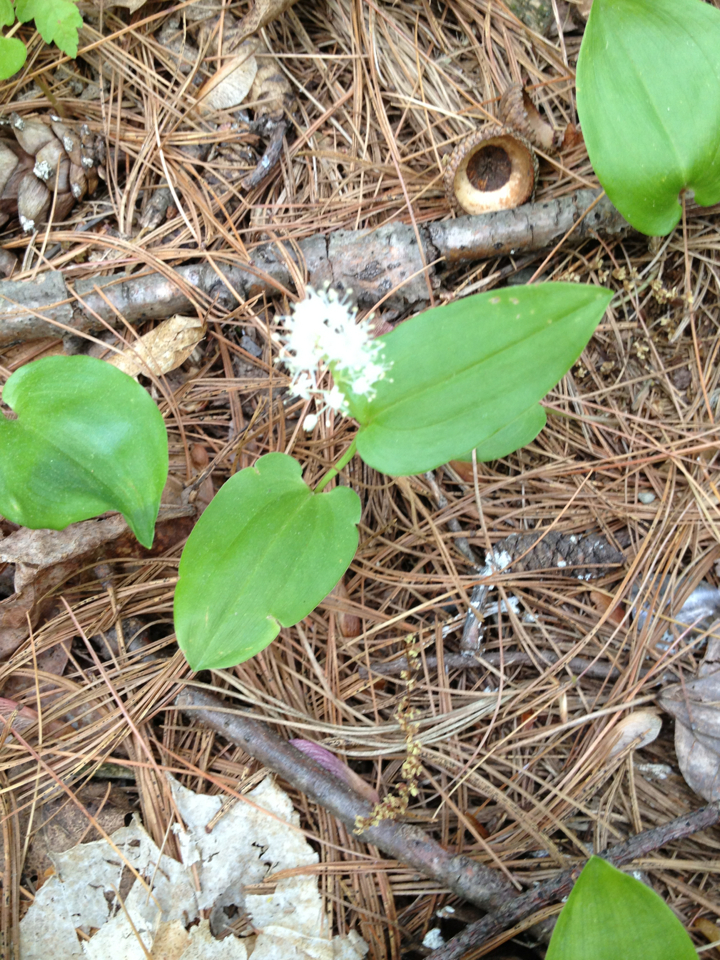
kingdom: Plantae
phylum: Tracheophyta
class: Liliopsida
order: Asparagales
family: Asparagaceae
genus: Maianthemum
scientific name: Maianthemum canadense
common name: False lily-of-the-valley
